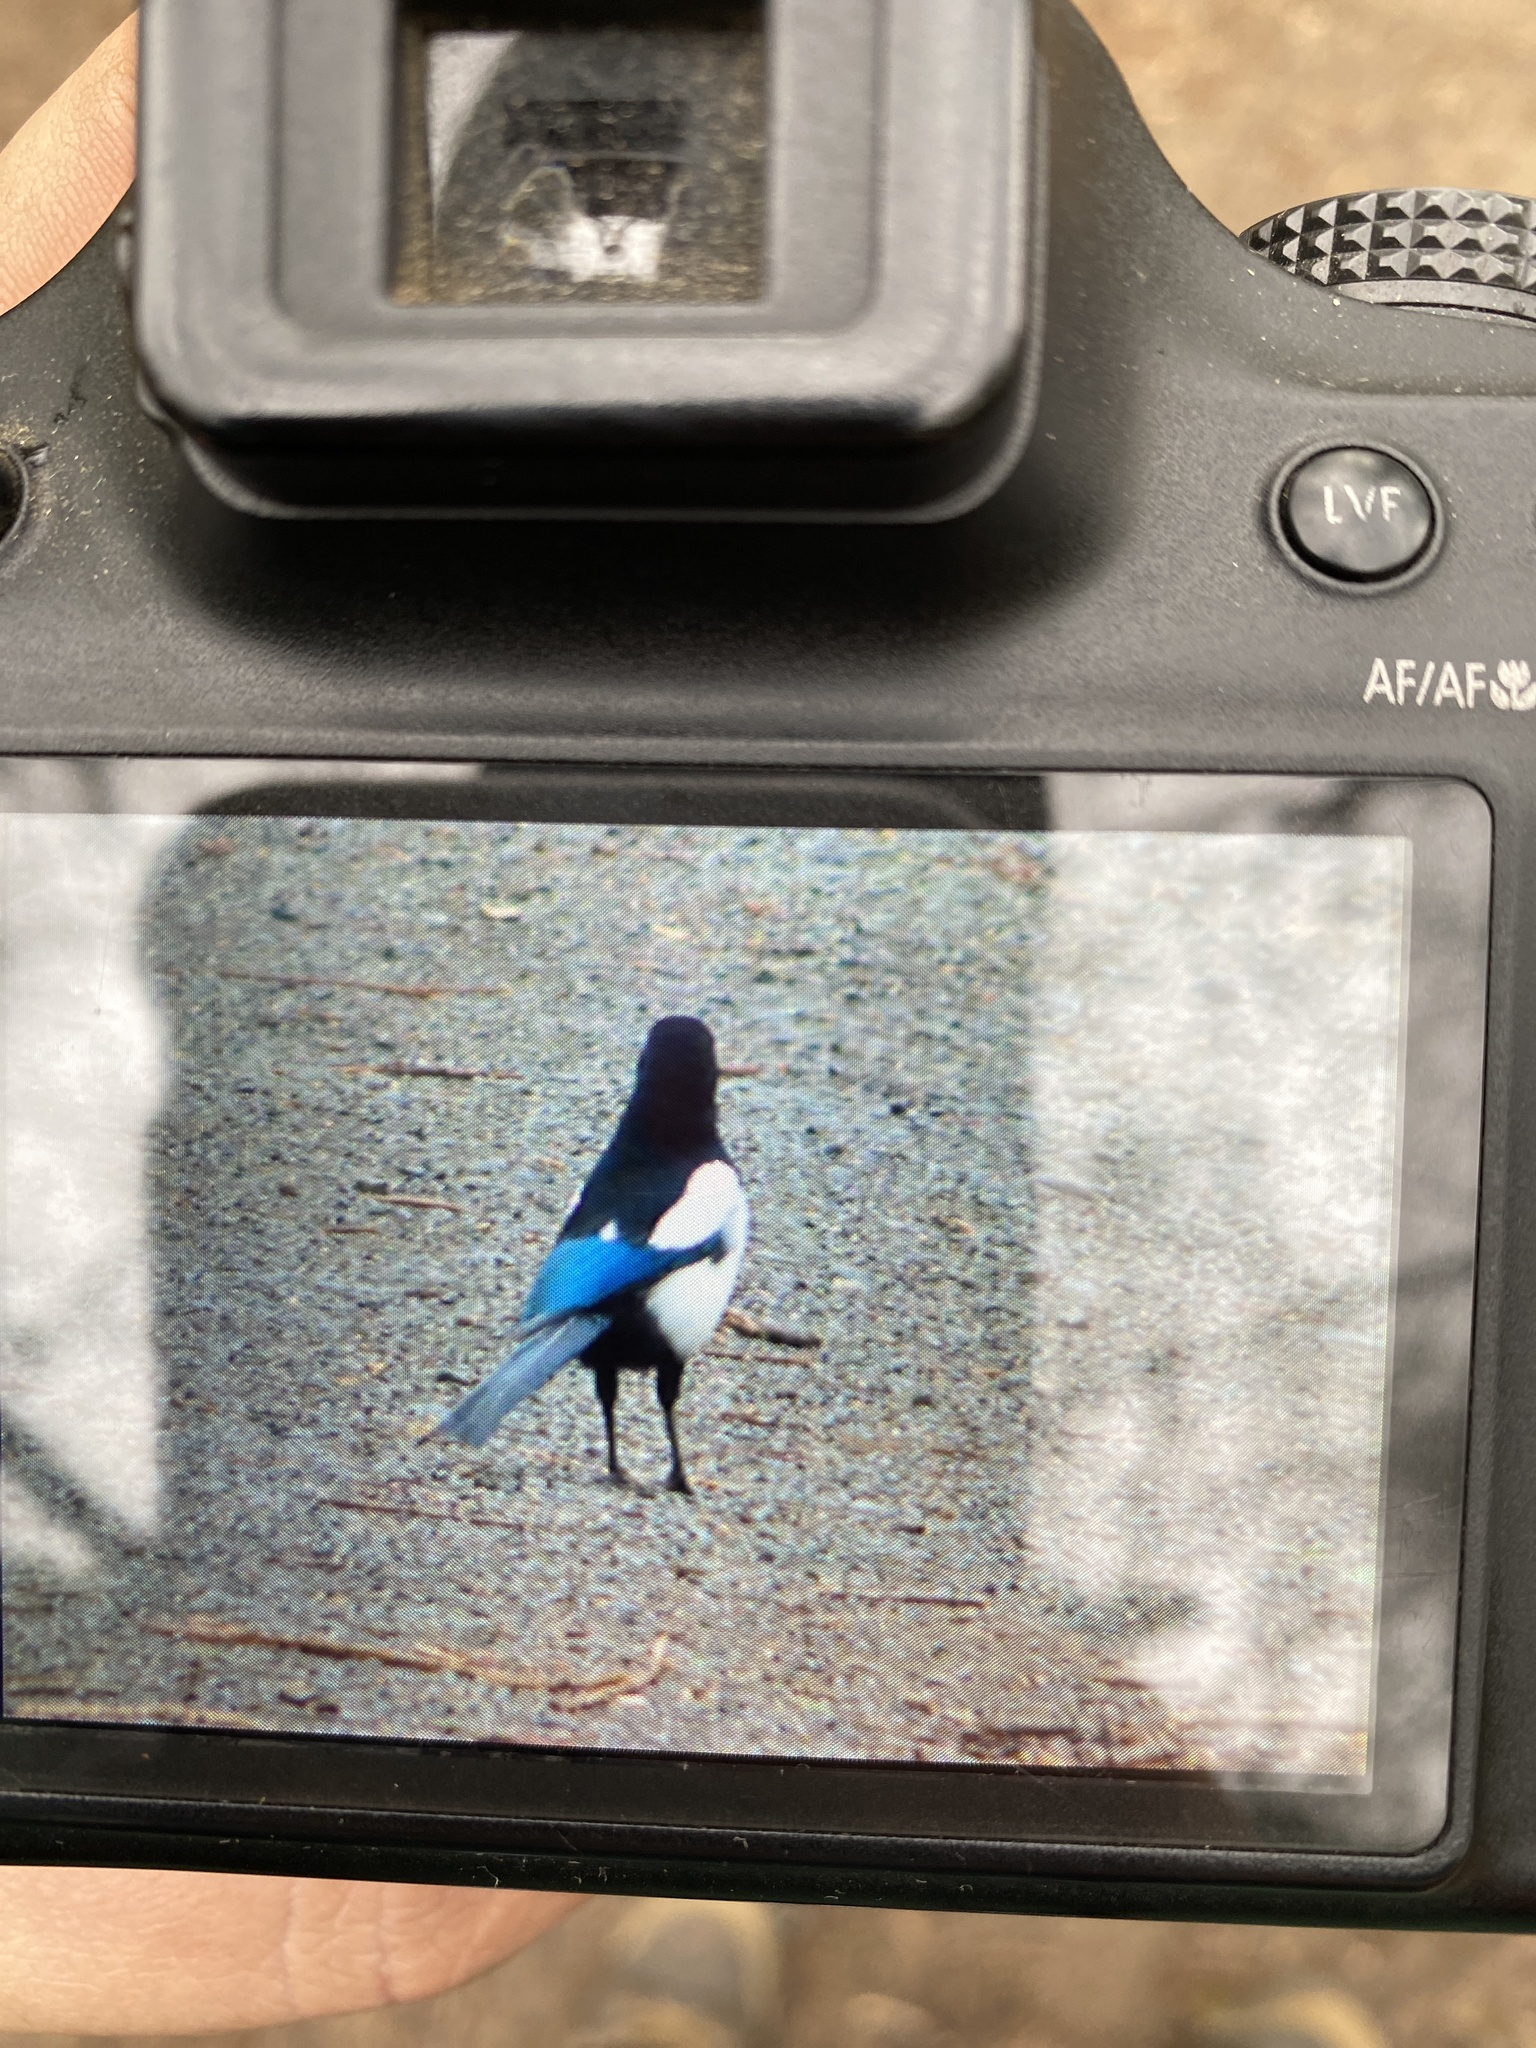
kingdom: Animalia
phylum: Chordata
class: Aves
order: Passeriformes
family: Corvidae
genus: Pica
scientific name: Pica pica
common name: Eurasian magpie
